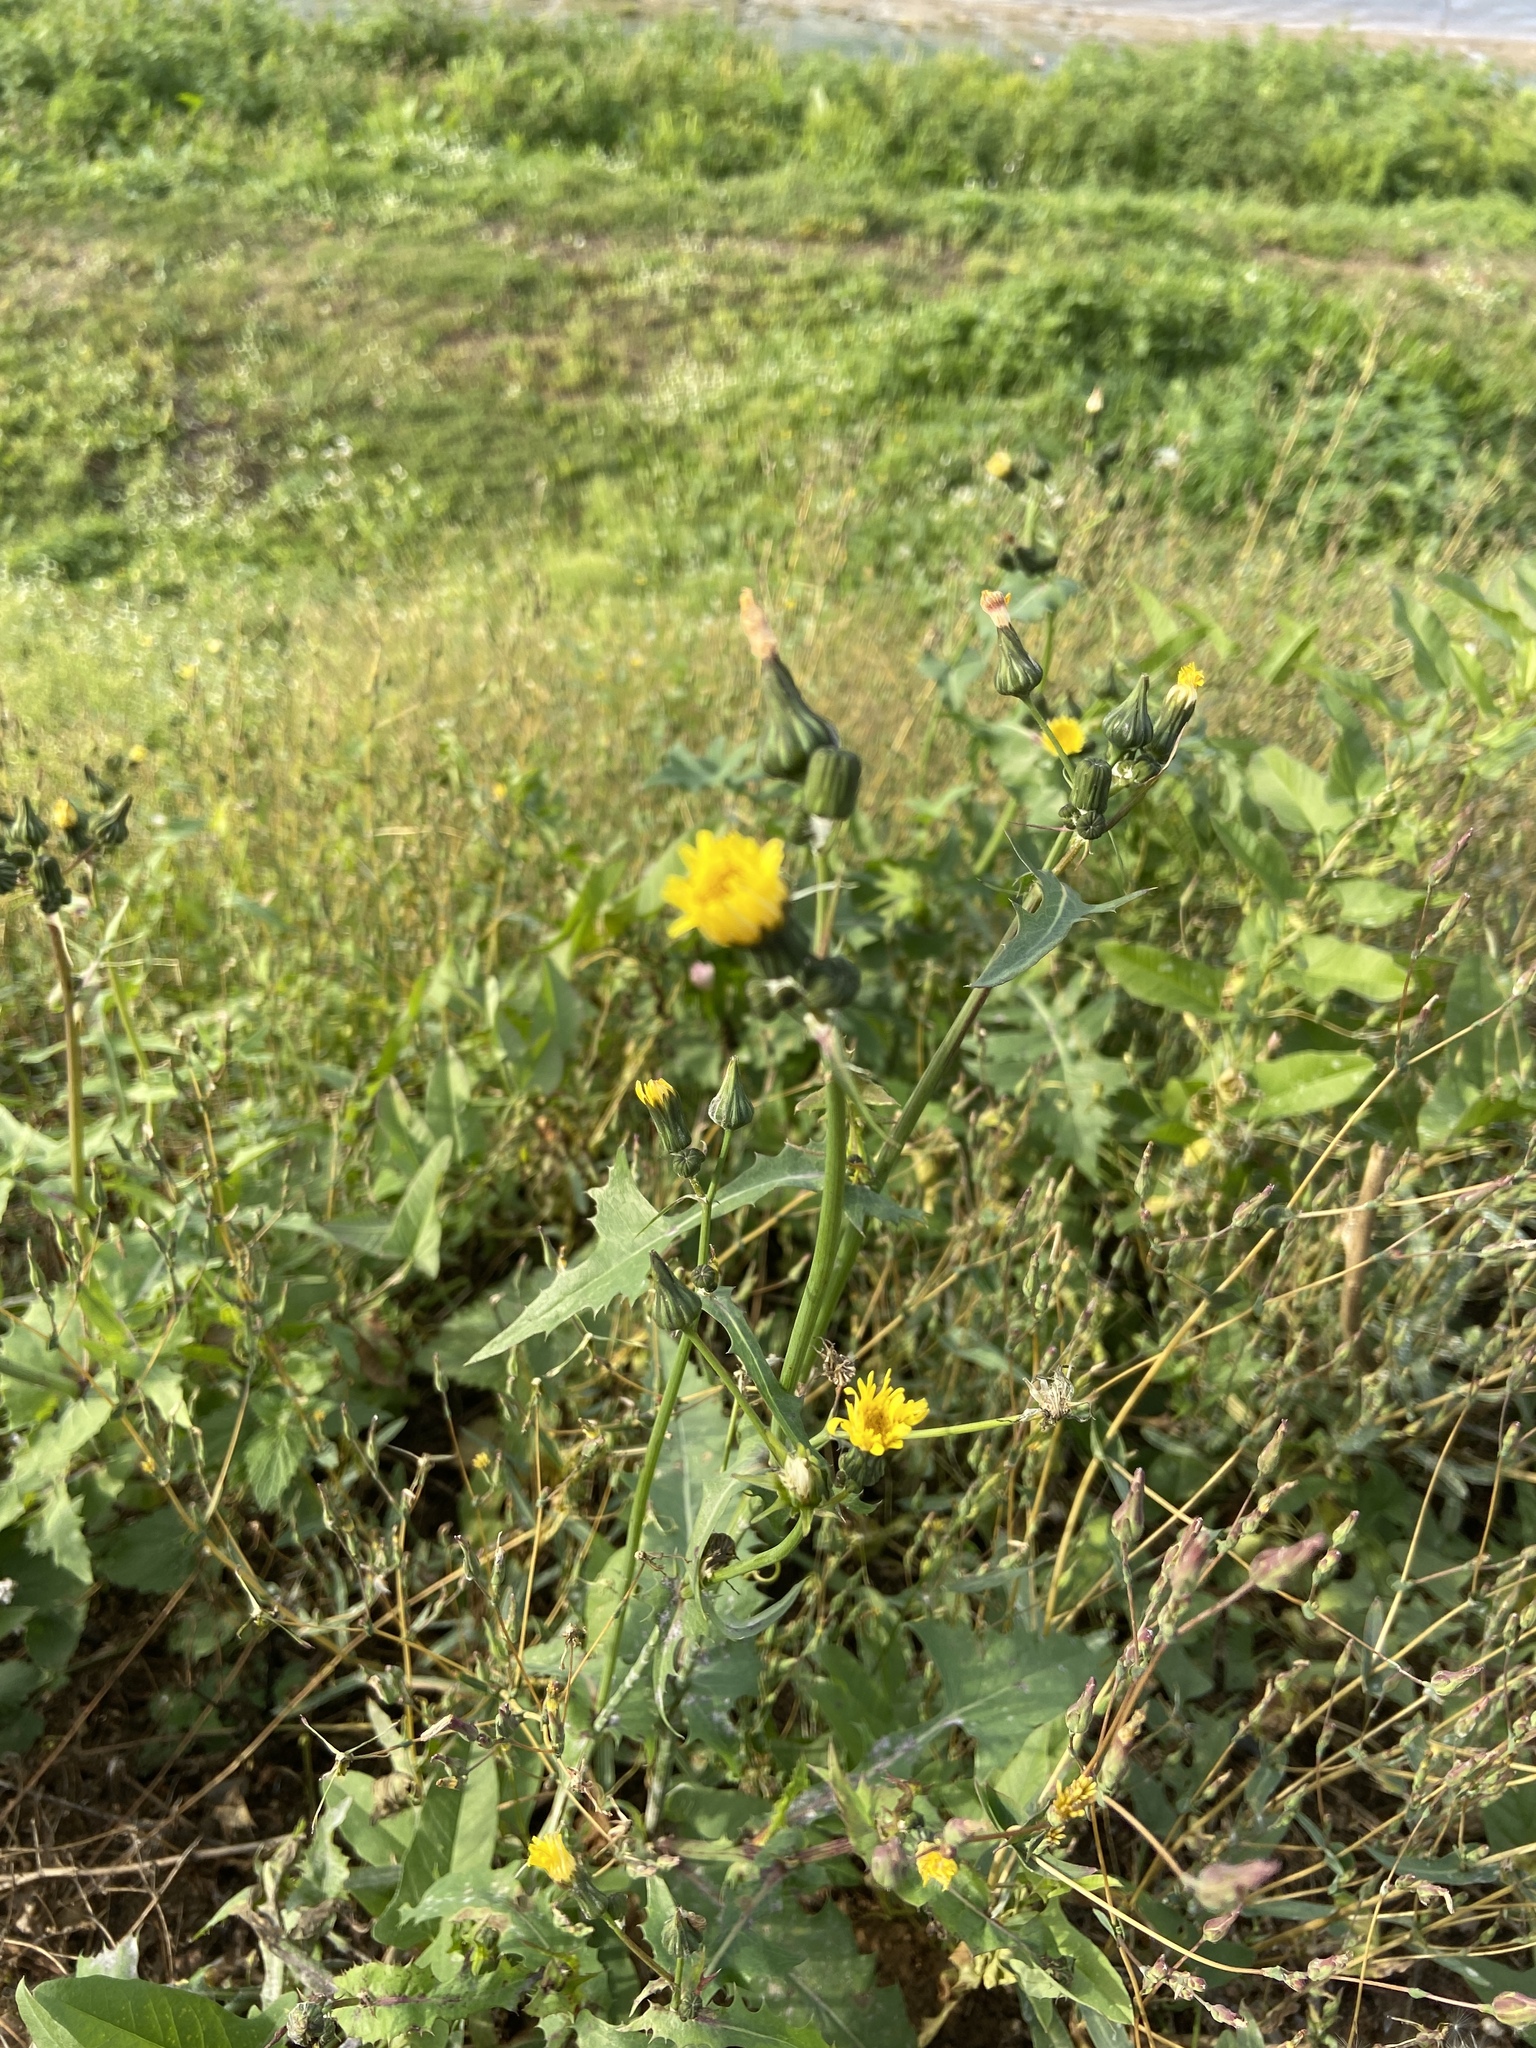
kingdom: Plantae
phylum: Tracheophyta
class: Magnoliopsida
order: Asterales
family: Asteraceae
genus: Sonchus
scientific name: Sonchus oleraceus
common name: Common sowthistle
